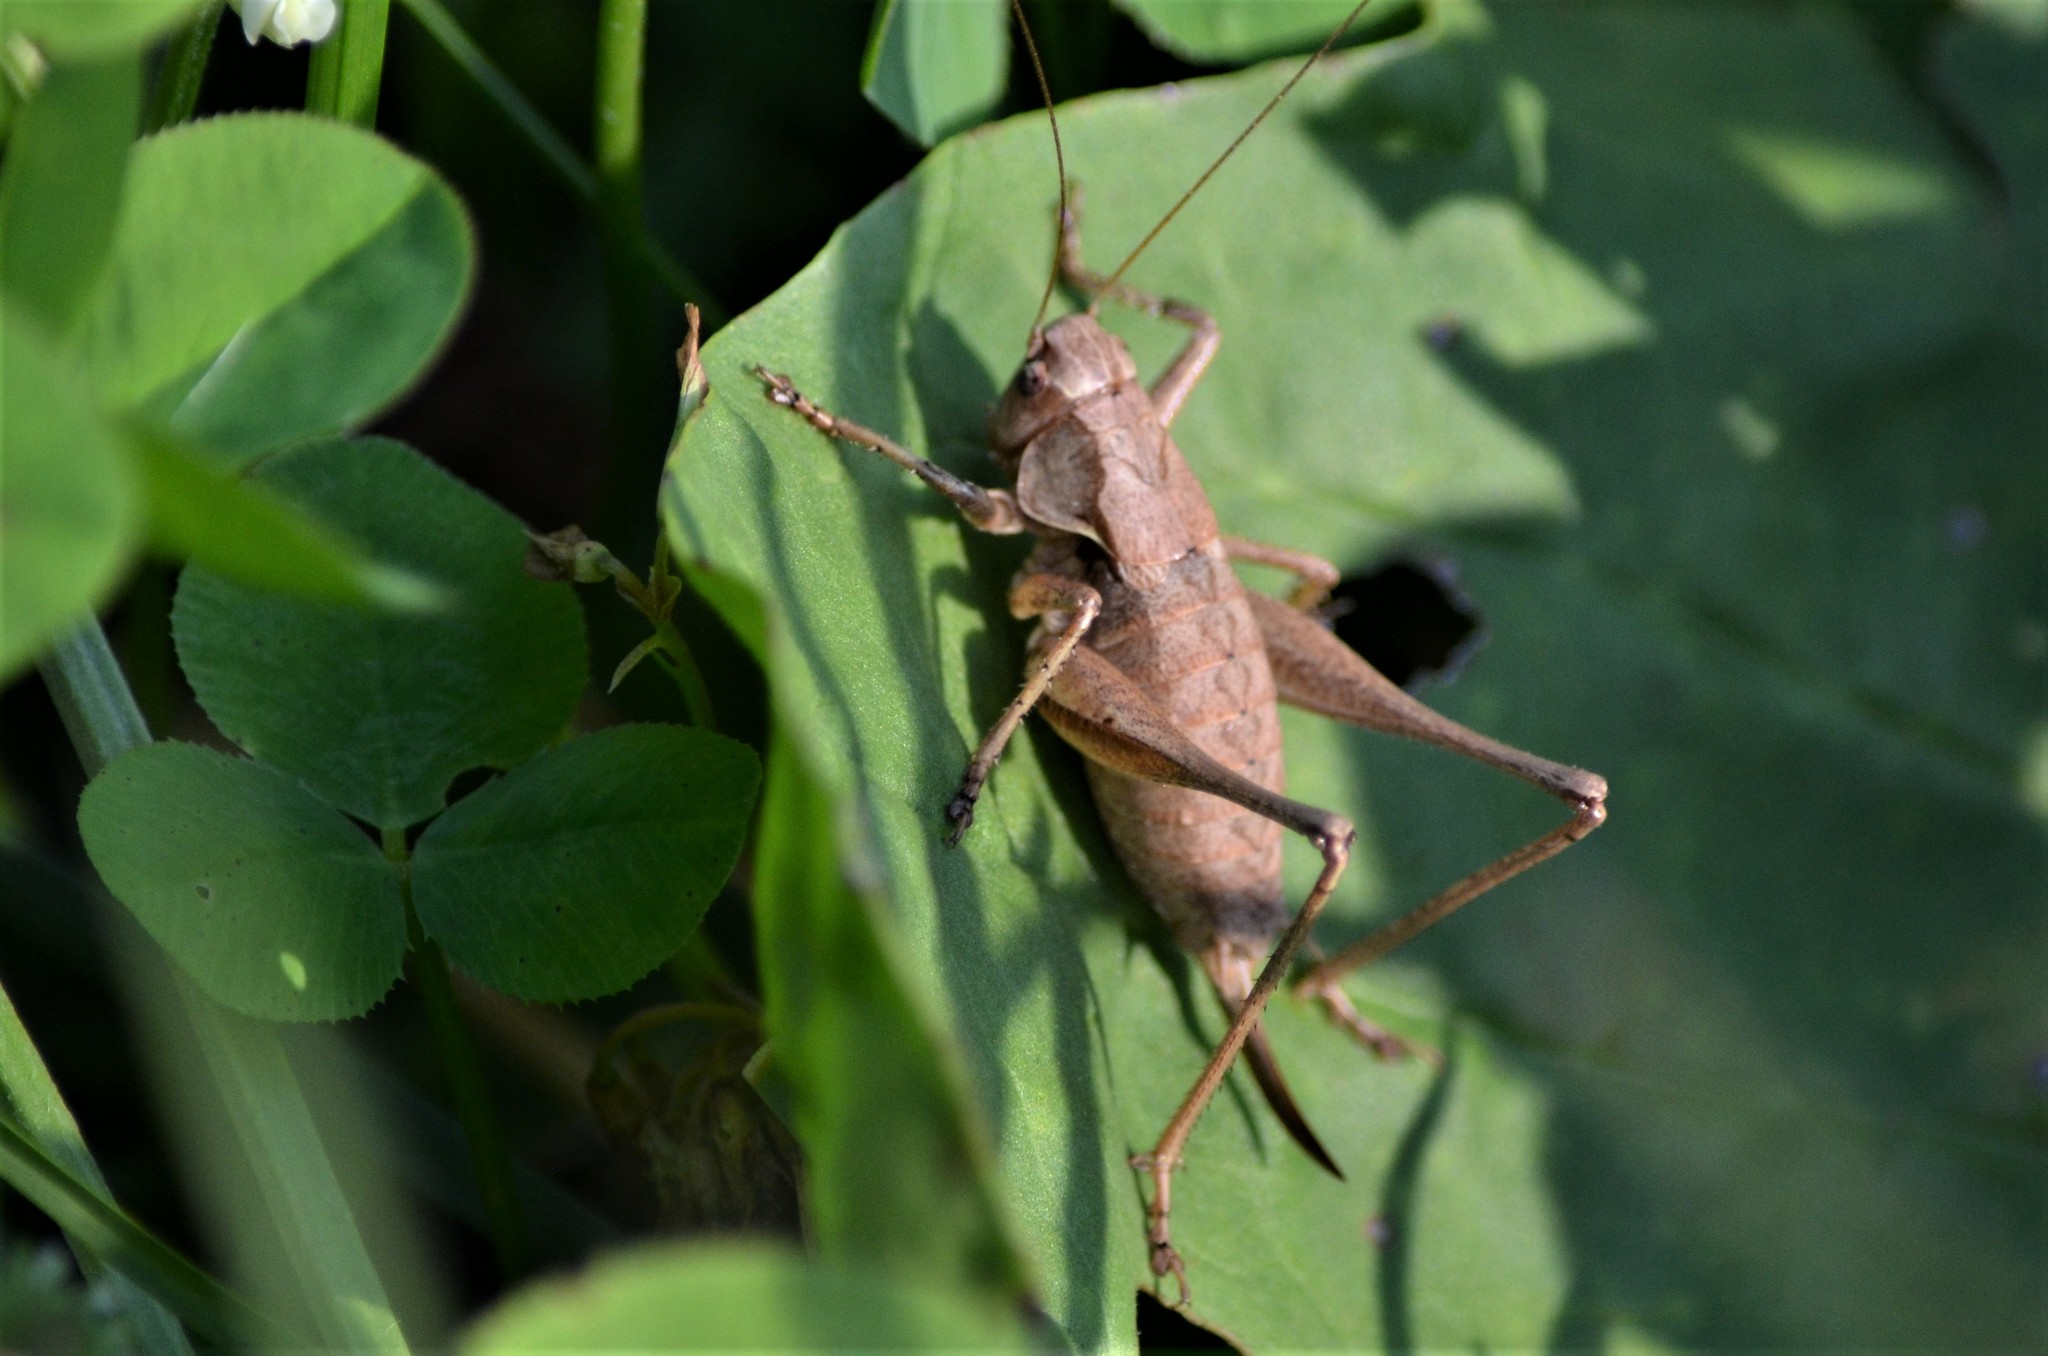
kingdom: Animalia
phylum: Arthropoda
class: Insecta
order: Orthoptera
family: Tettigoniidae
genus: Pholidoptera
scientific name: Pholidoptera griseoaptera
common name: Dark bush-cricket
